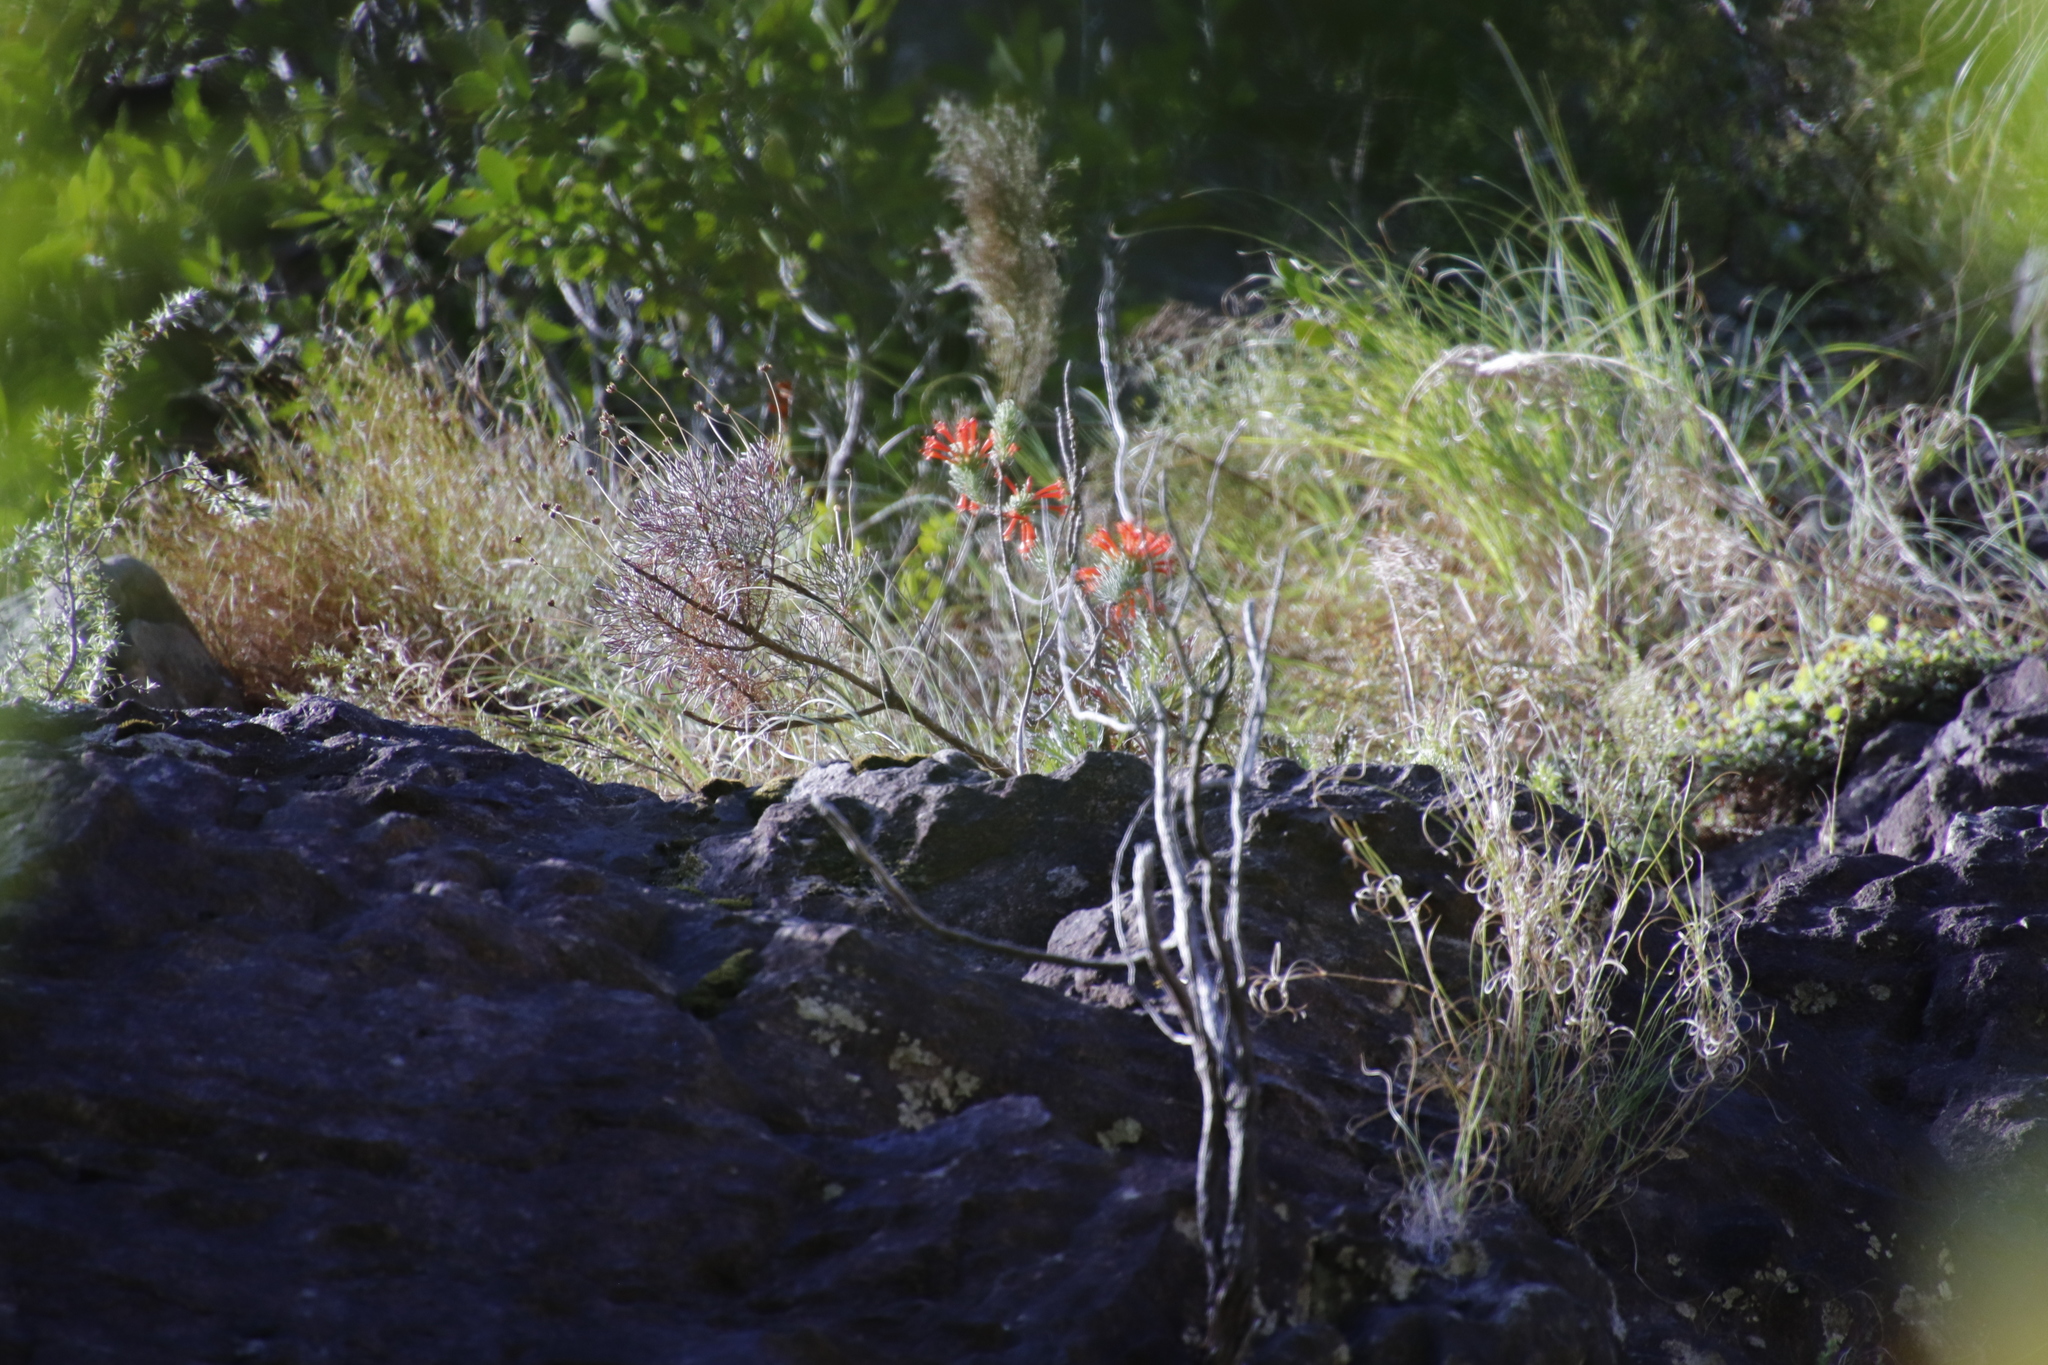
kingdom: Plantae
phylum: Tracheophyta
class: Magnoliopsida
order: Ericales
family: Ericaceae
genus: Erica
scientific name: Erica grandiflora
